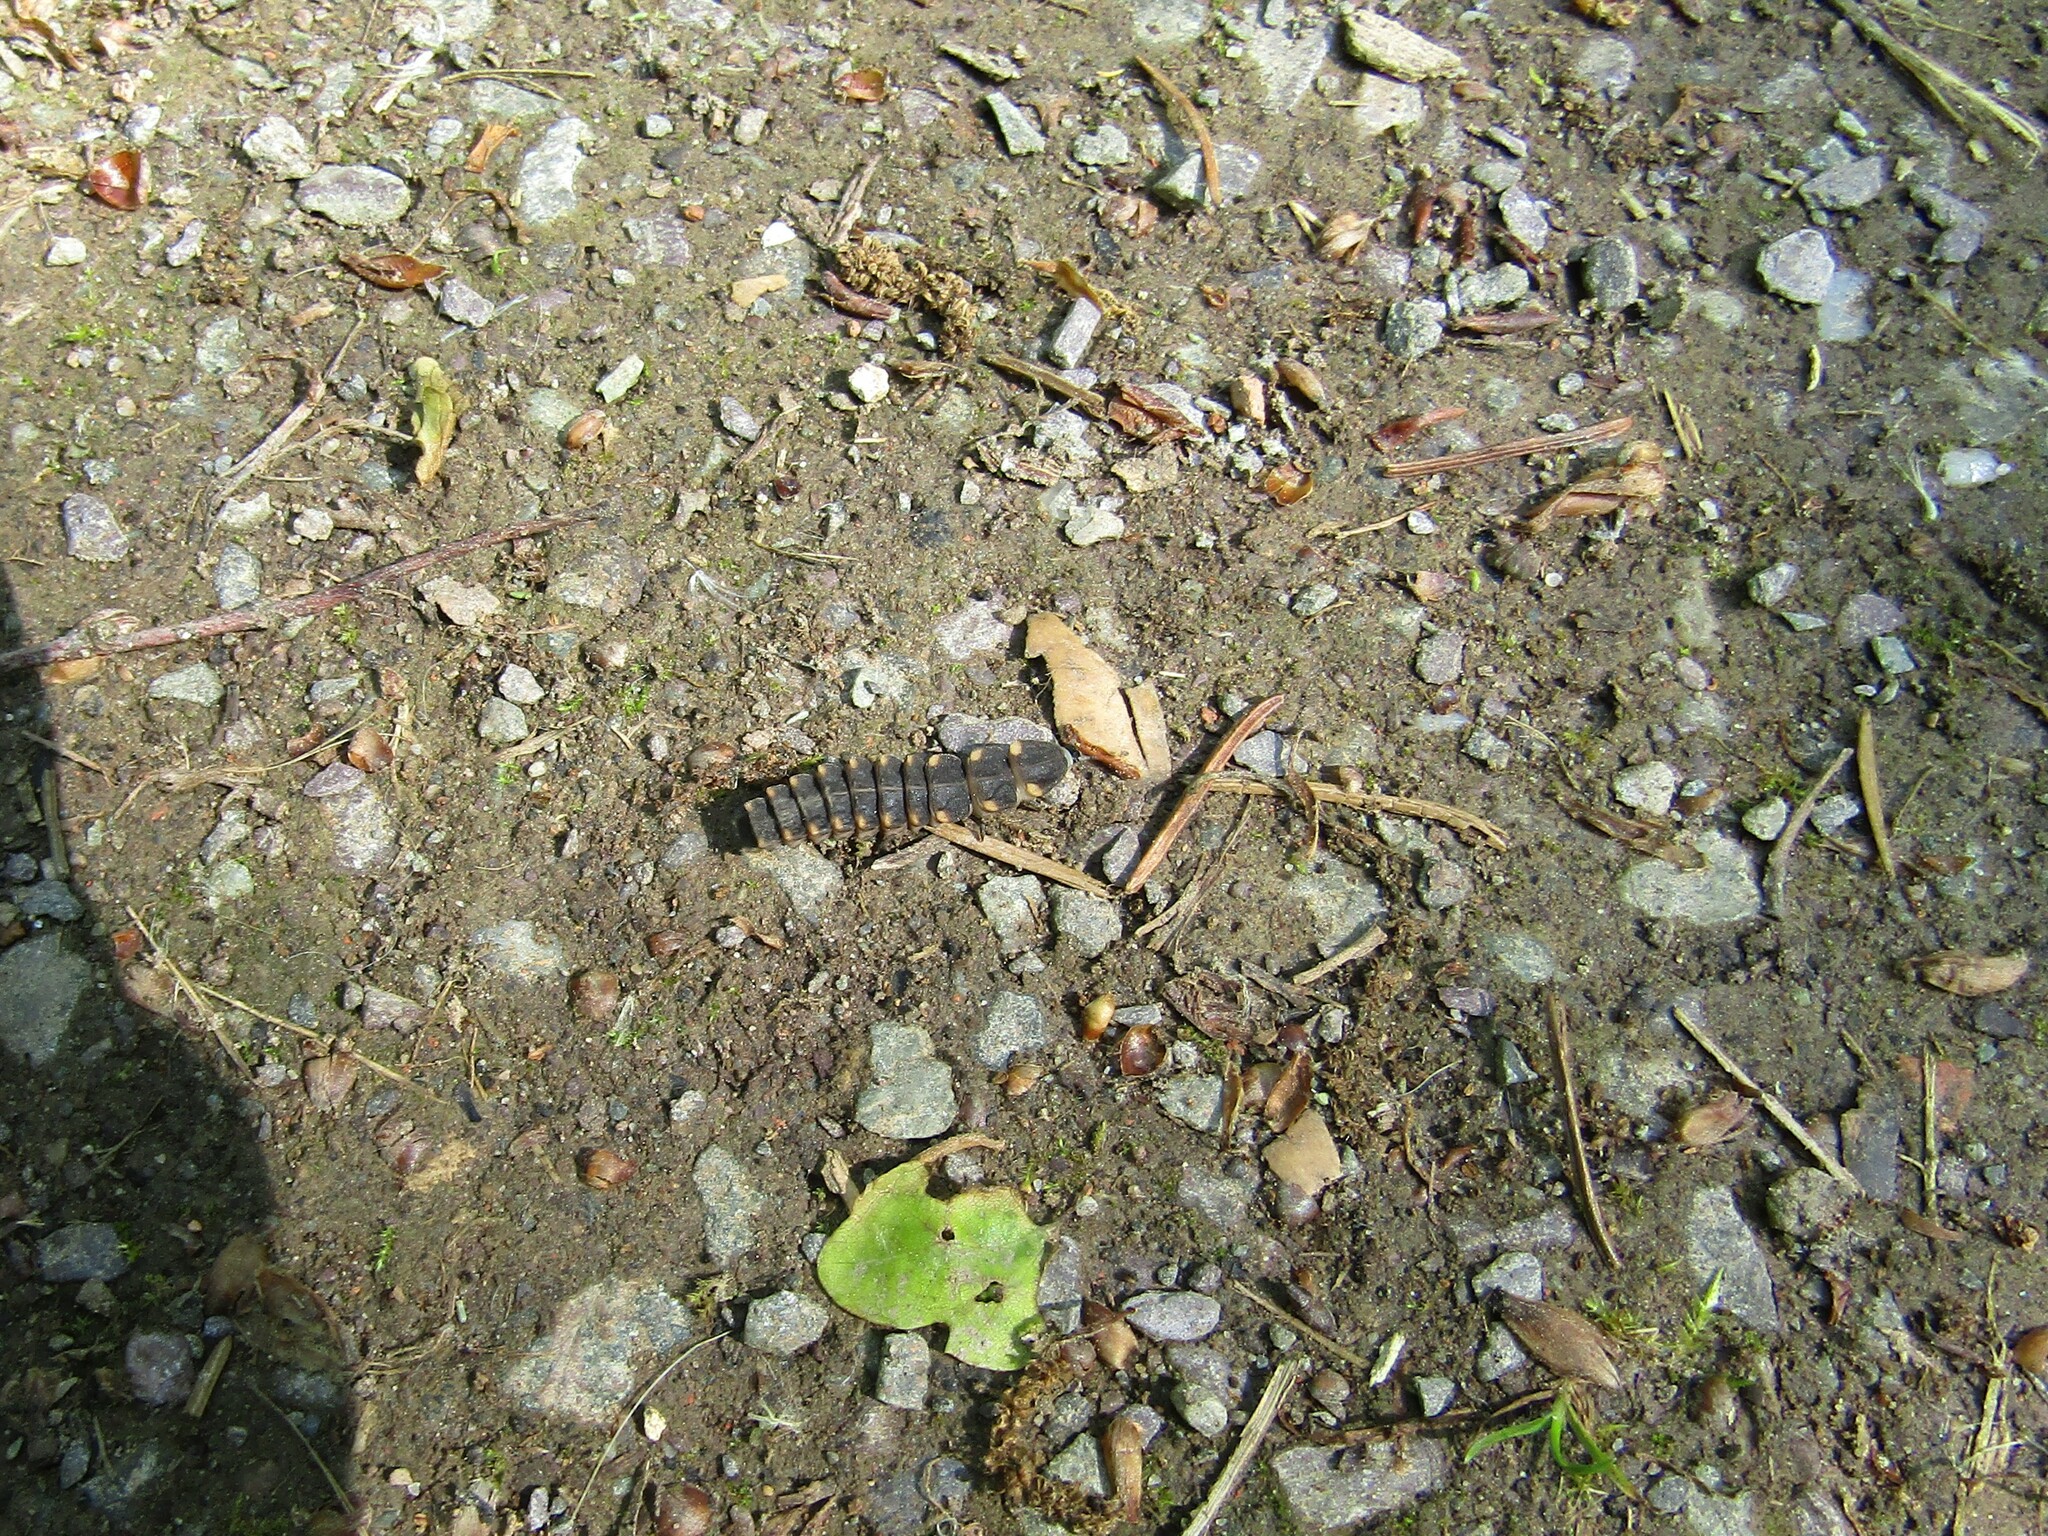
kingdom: Animalia
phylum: Arthropoda
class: Insecta
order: Coleoptera
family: Lampyridae
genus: Lampyris
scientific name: Lampyris noctiluca
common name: Glow-worm
